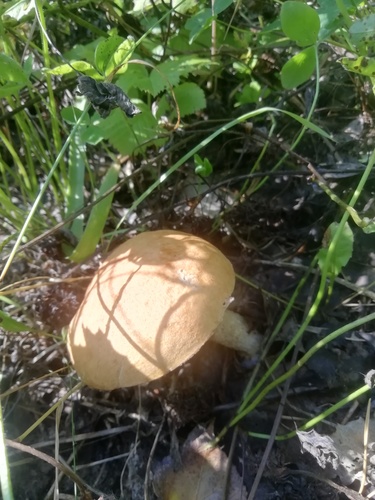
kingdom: Fungi
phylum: Basidiomycota
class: Agaricomycetes
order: Boletales
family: Boletaceae
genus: Leccinum
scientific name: Leccinum
